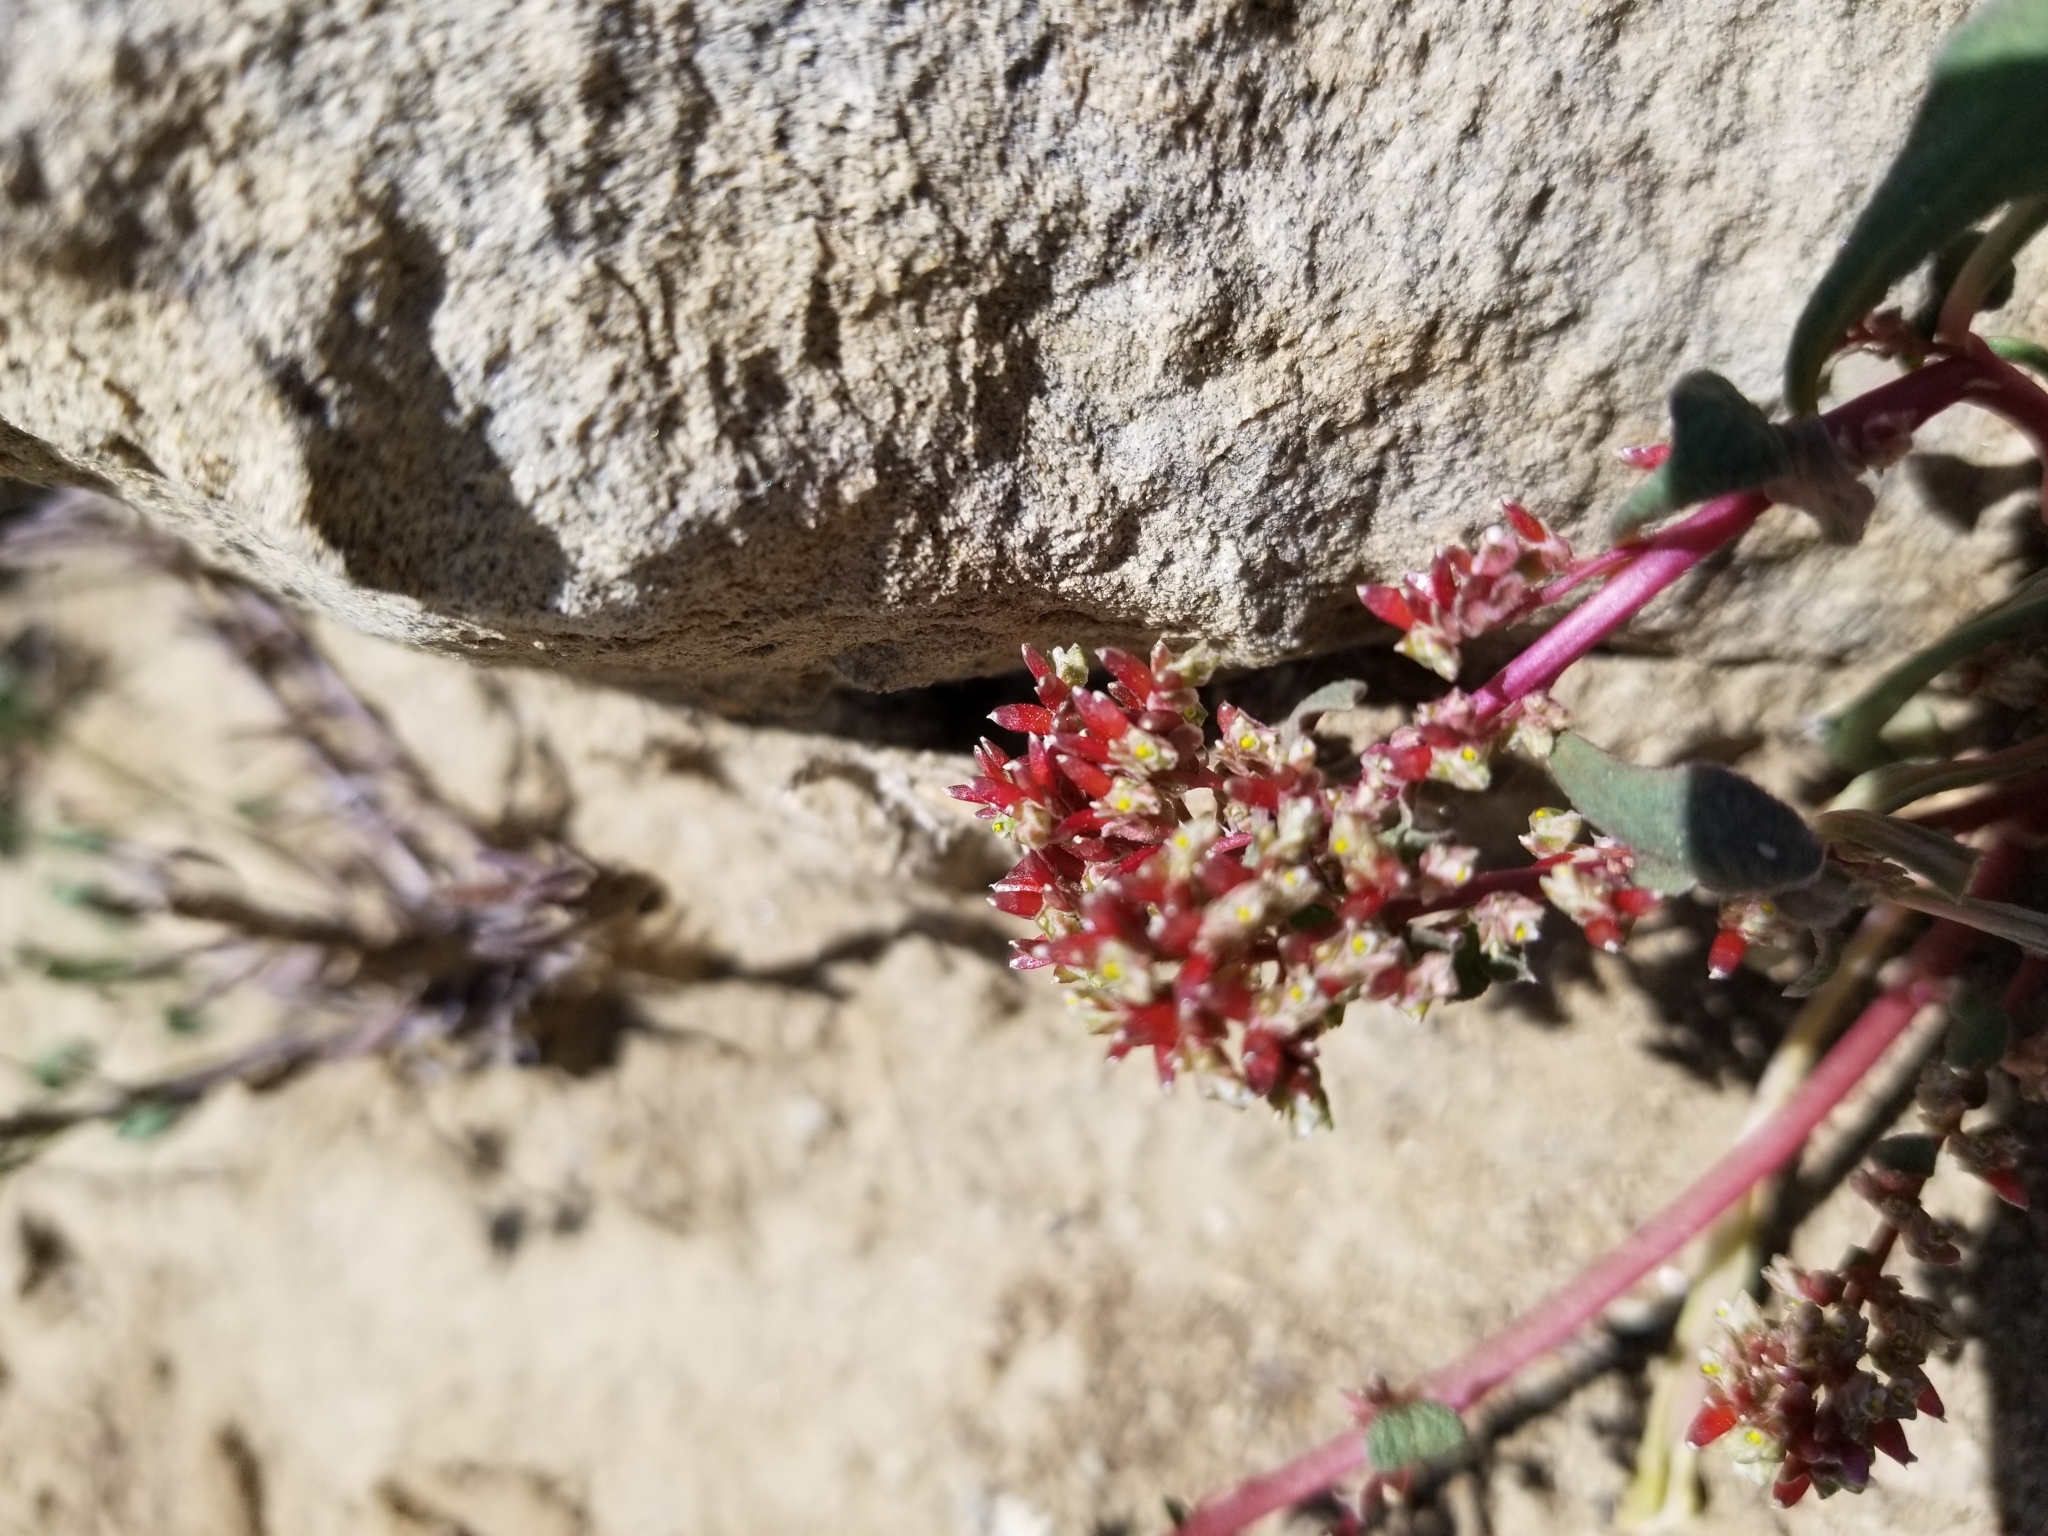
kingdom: Plantae
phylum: Tracheophyta
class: Magnoliopsida
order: Caryophyllales
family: Montiaceae
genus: Calyptridium
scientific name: Calyptridium monandrum
